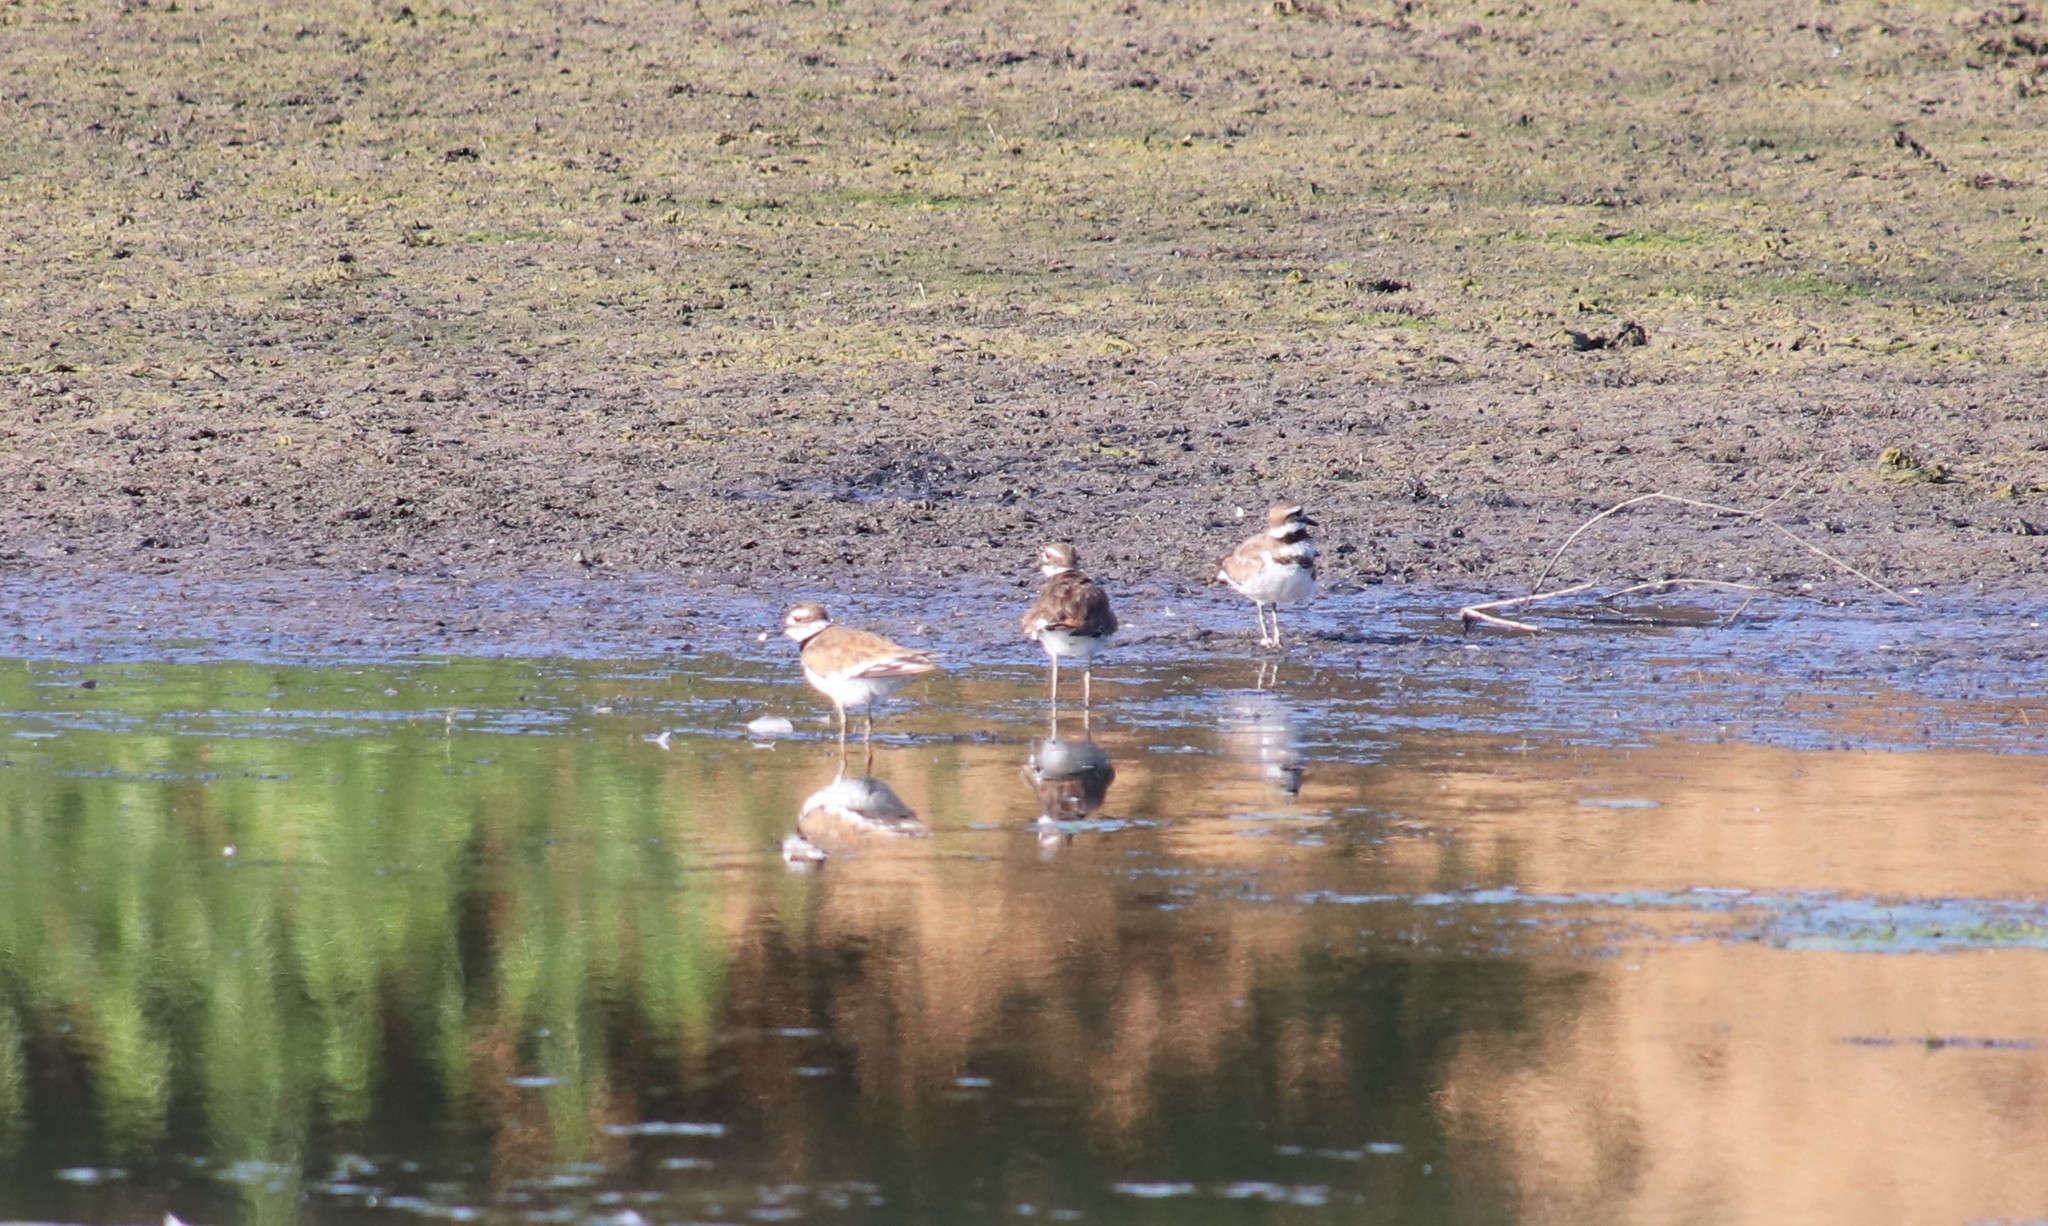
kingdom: Animalia
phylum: Chordata
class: Aves
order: Charadriiformes
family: Charadriidae
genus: Charadrius
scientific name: Charadrius vociferus
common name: Killdeer
